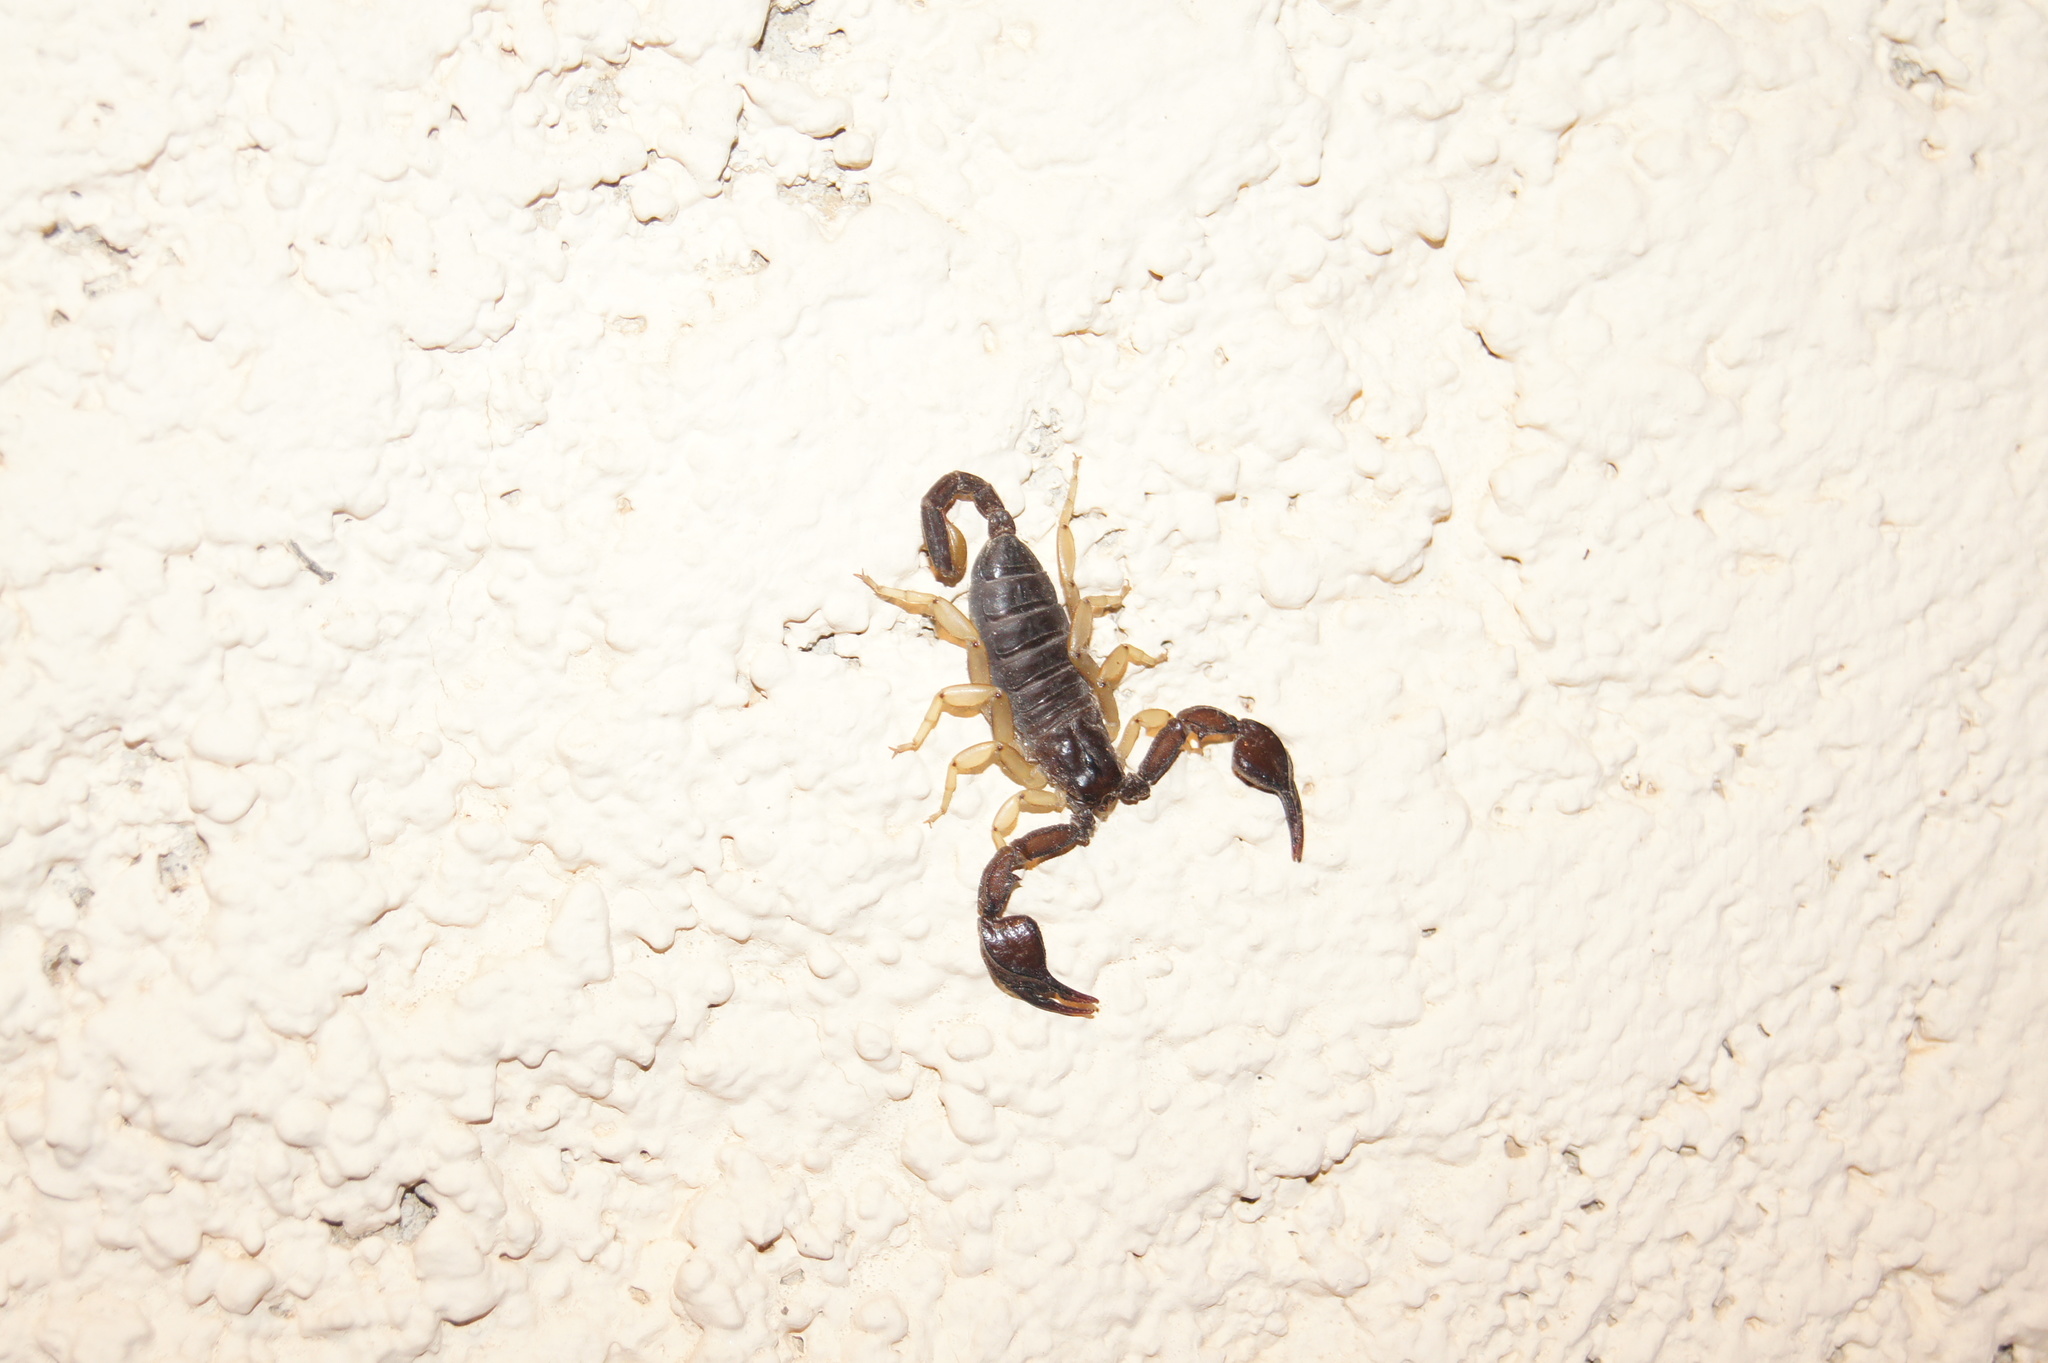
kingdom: Animalia
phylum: Arthropoda
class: Arachnida
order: Scorpiones
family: Euscorpiidae
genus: Euscorpius
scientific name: Euscorpius flavicaudis
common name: European yellow-tailed scorpion
